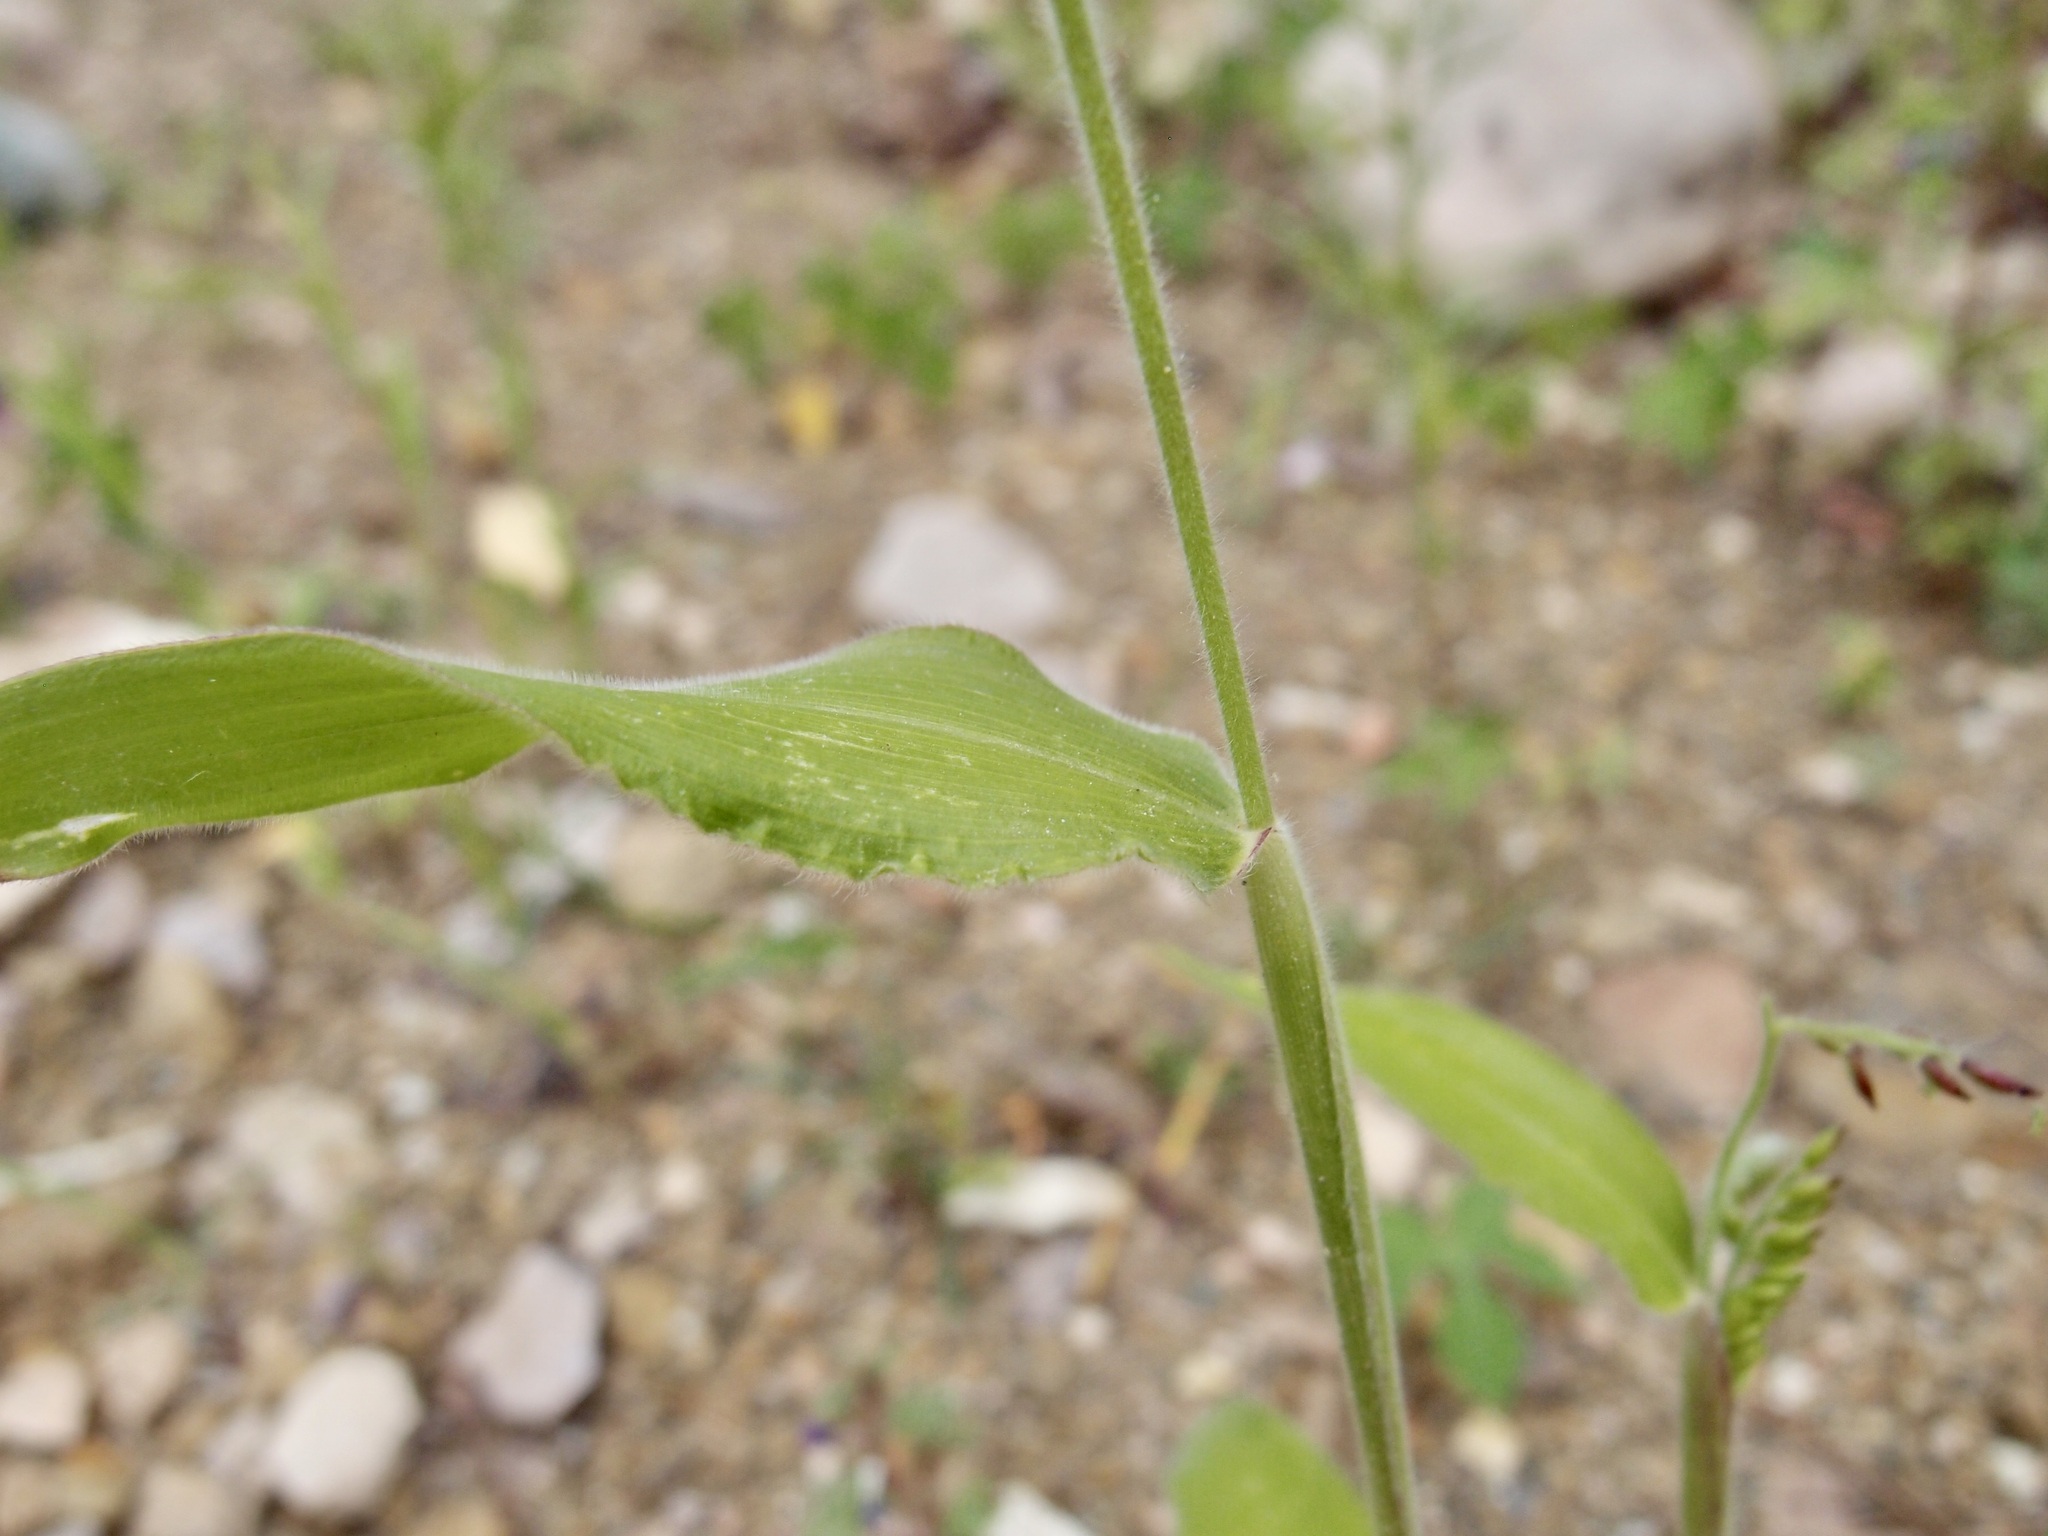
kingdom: Plantae
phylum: Tracheophyta
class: Liliopsida
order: Poales
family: Poaceae
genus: Eriochloa
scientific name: Eriochloa lemmonii
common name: Canyon cup grass
